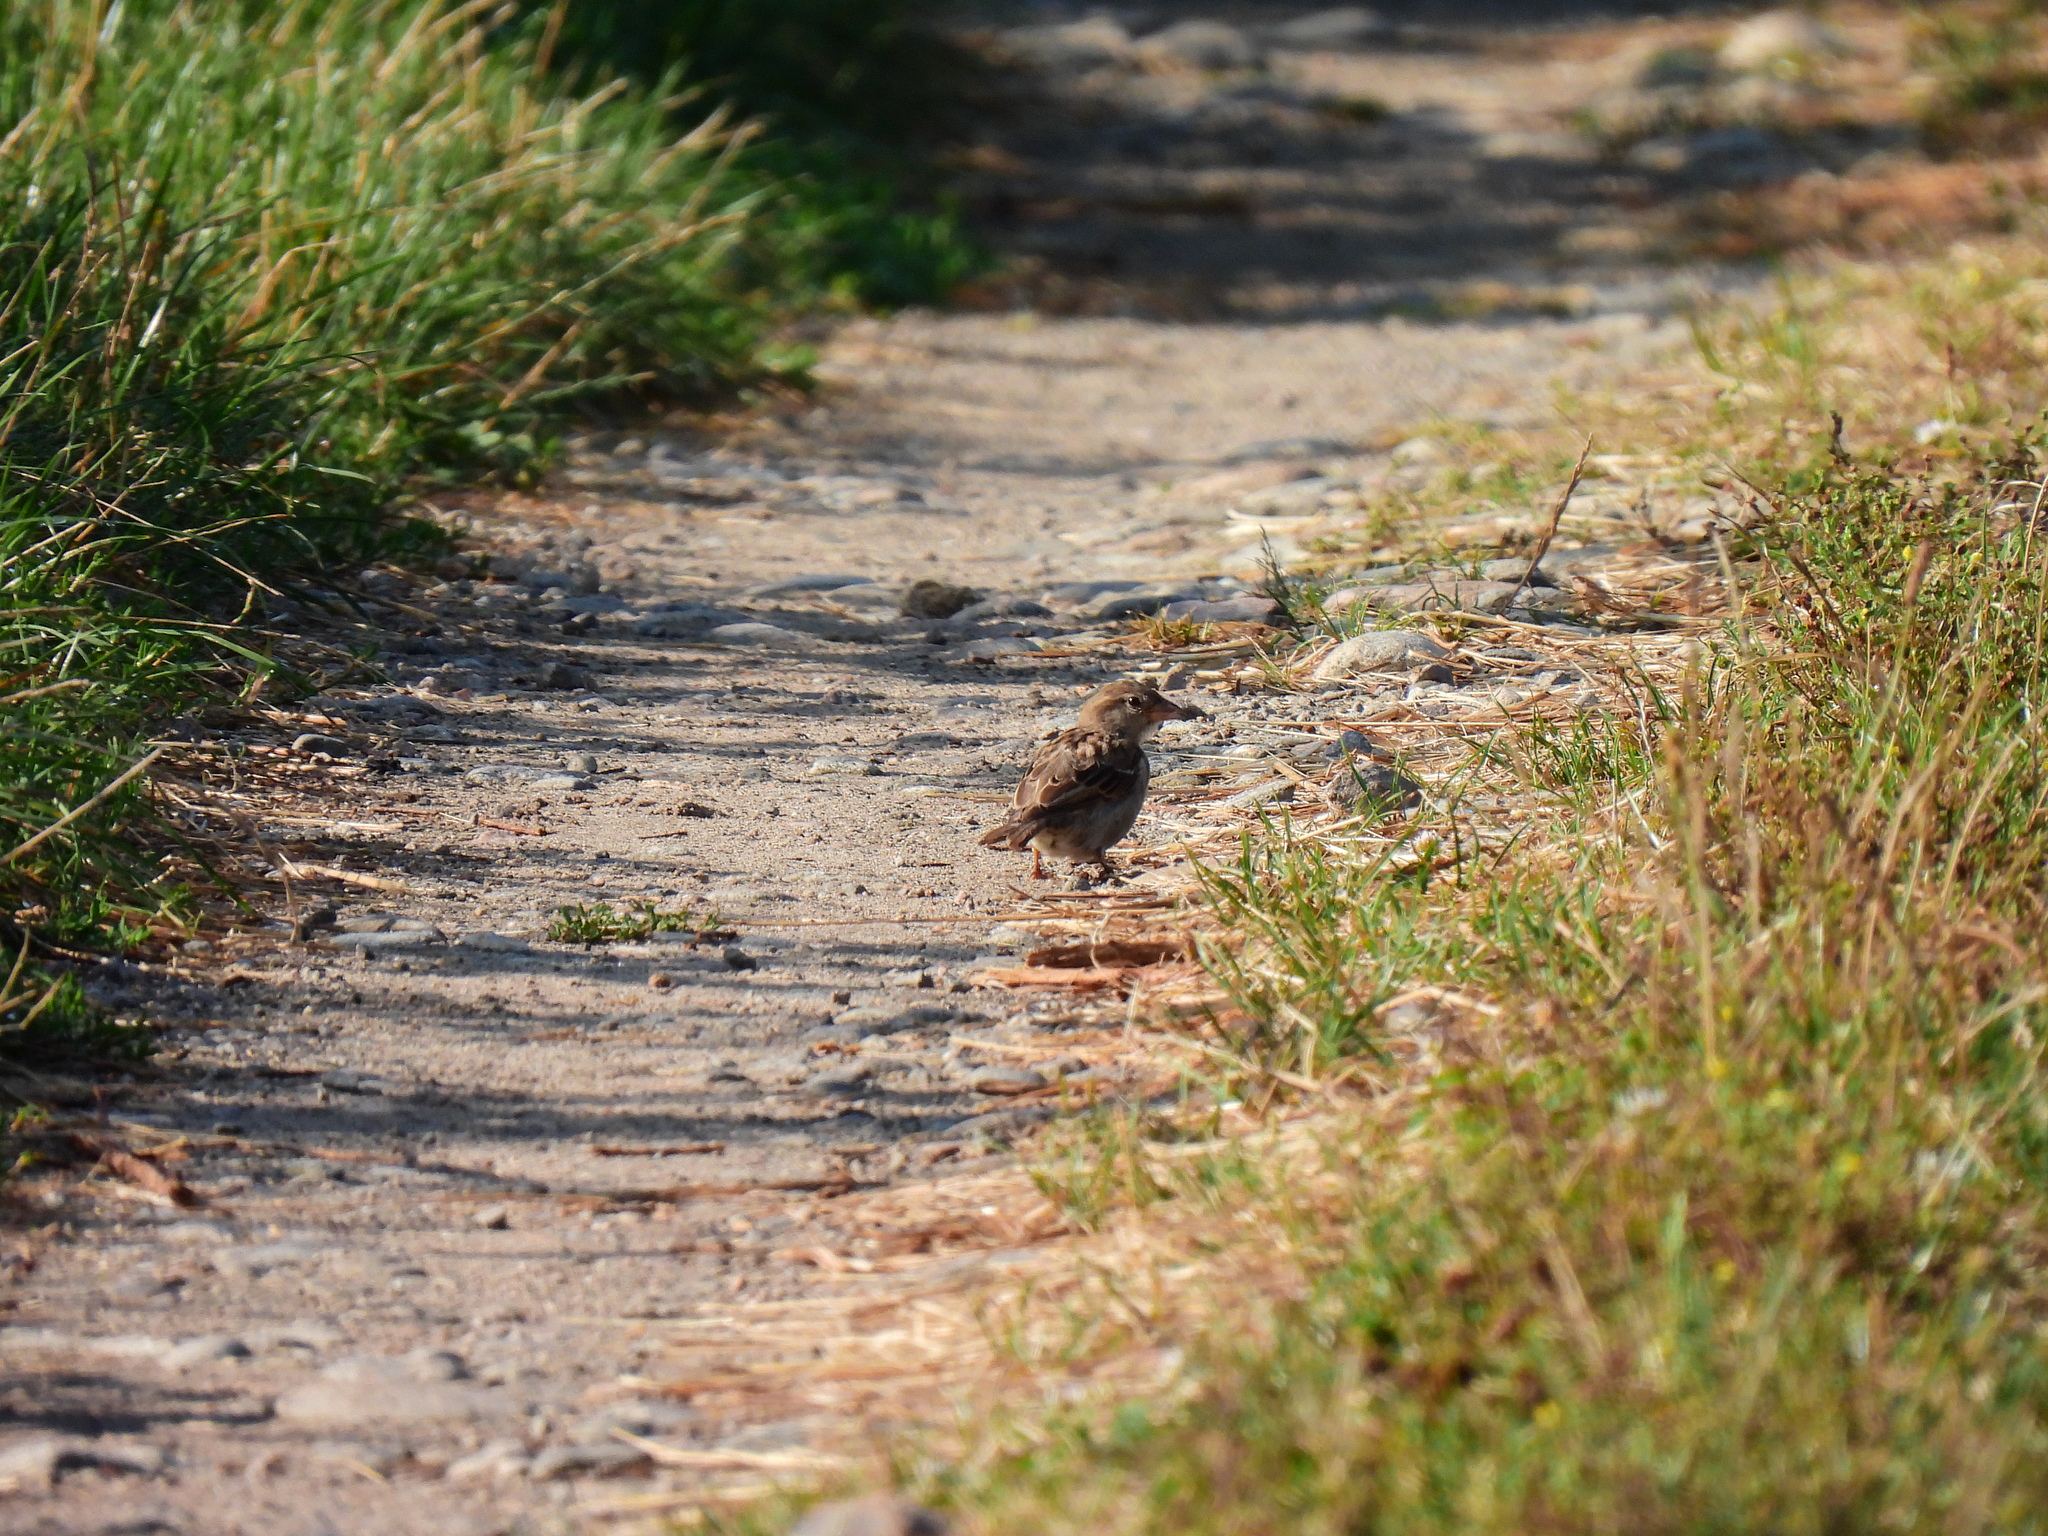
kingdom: Animalia
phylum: Chordata
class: Aves
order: Passeriformes
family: Passeridae
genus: Passer
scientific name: Passer domesticus
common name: House sparrow
